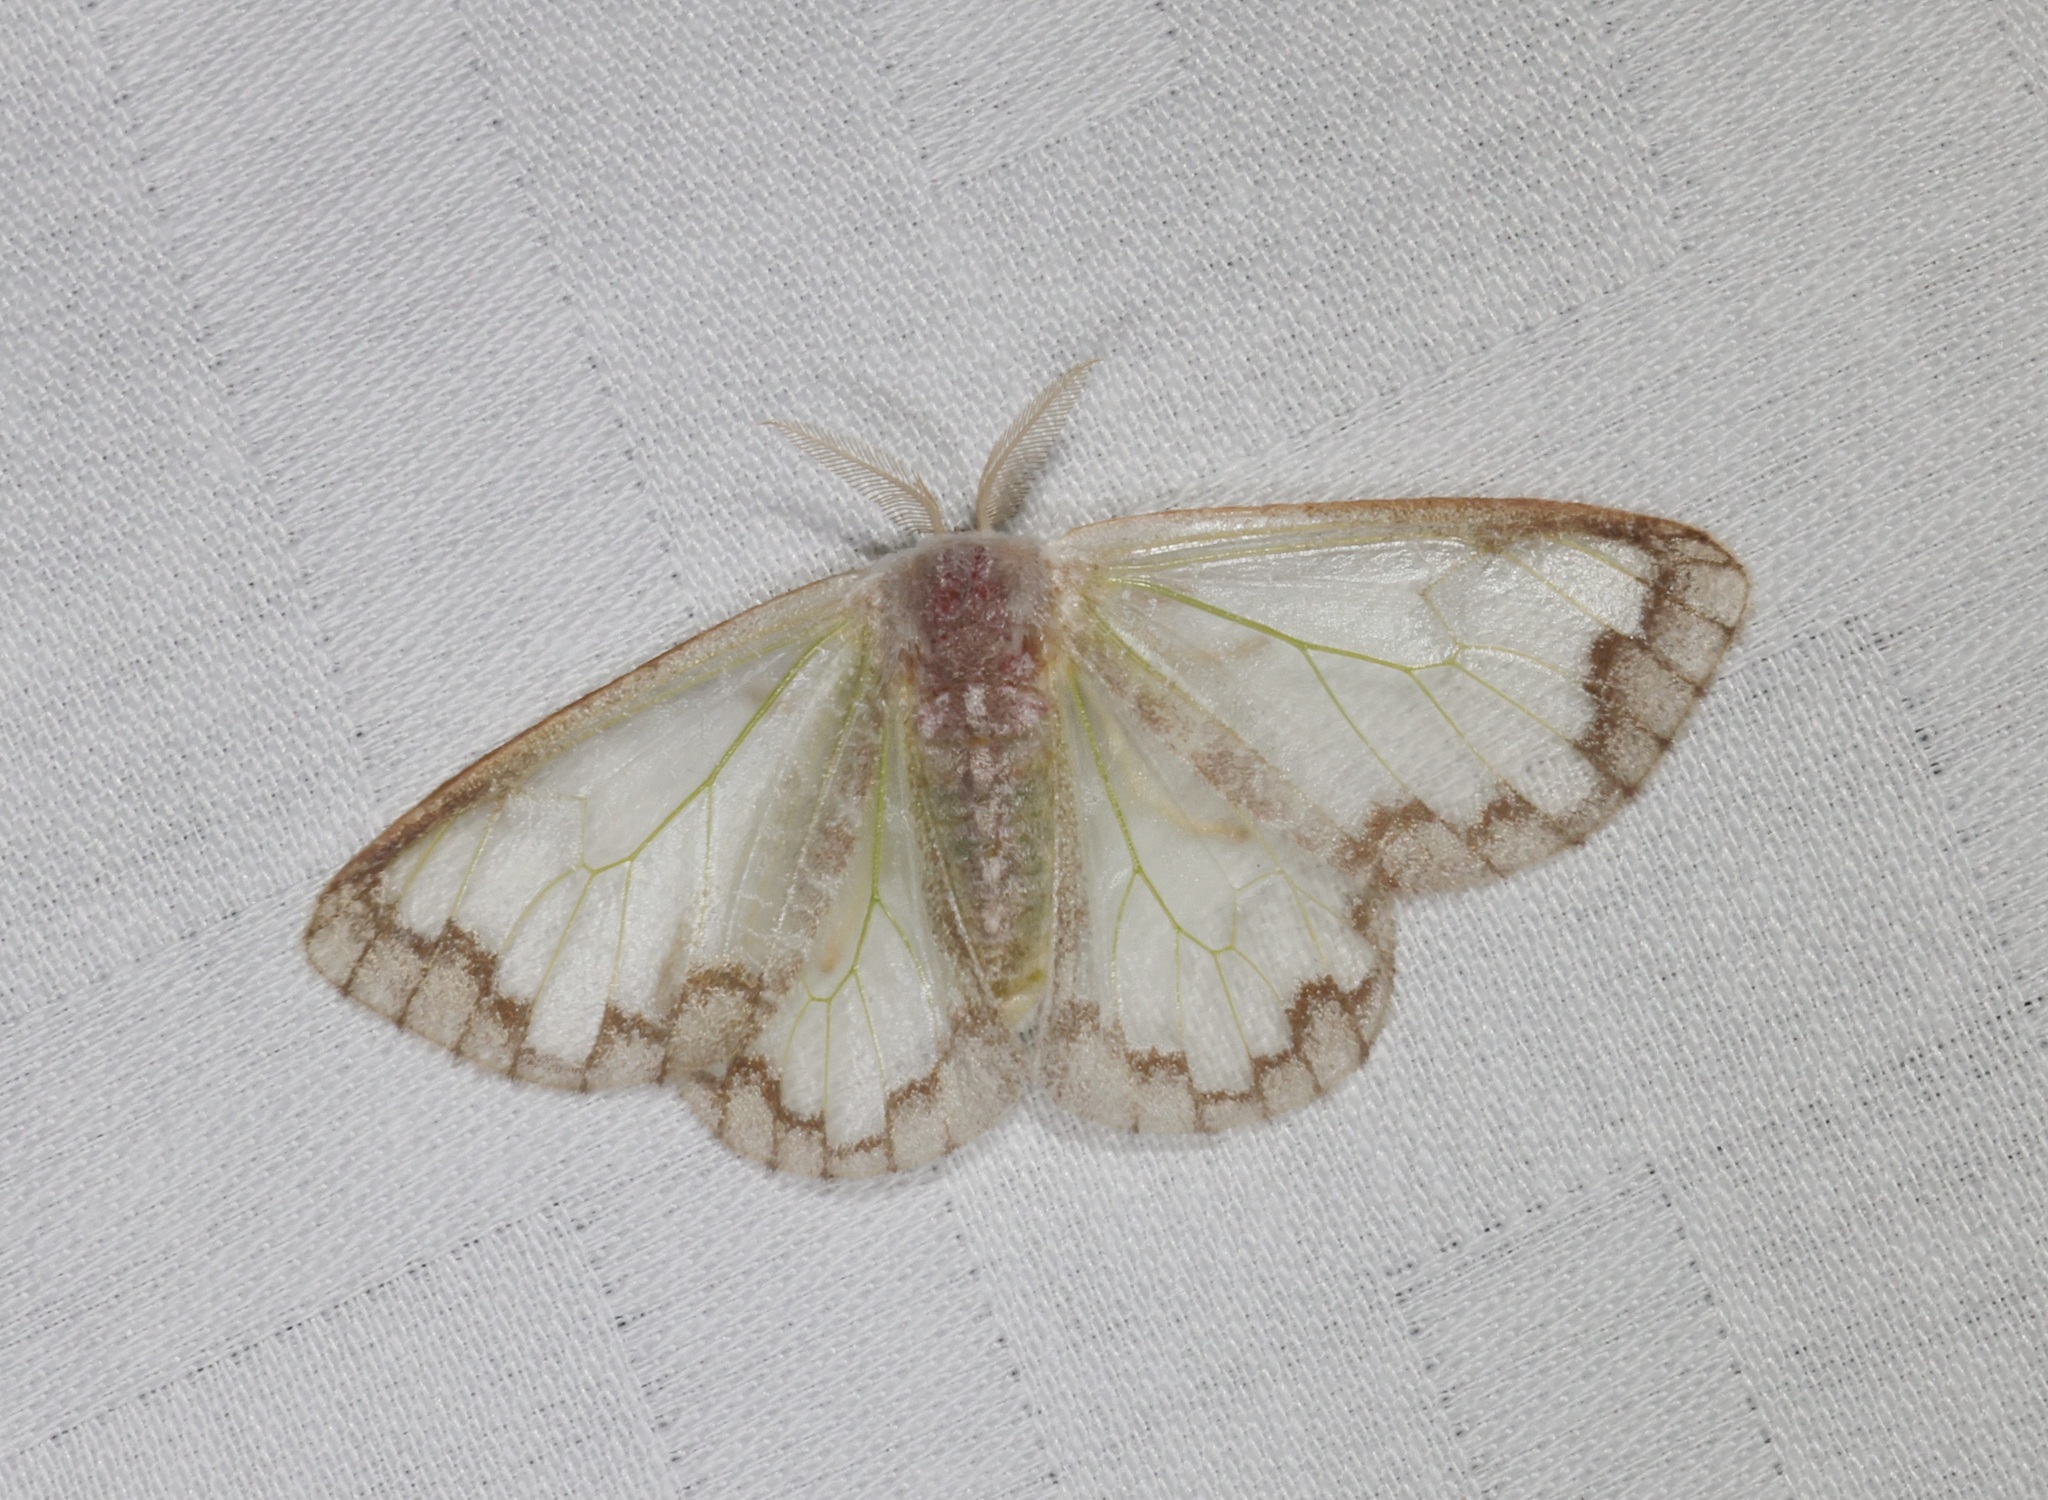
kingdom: Animalia
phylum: Arthropoda
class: Insecta
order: Lepidoptera
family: Erebidae
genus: Carriola
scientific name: Carriola seminsula
